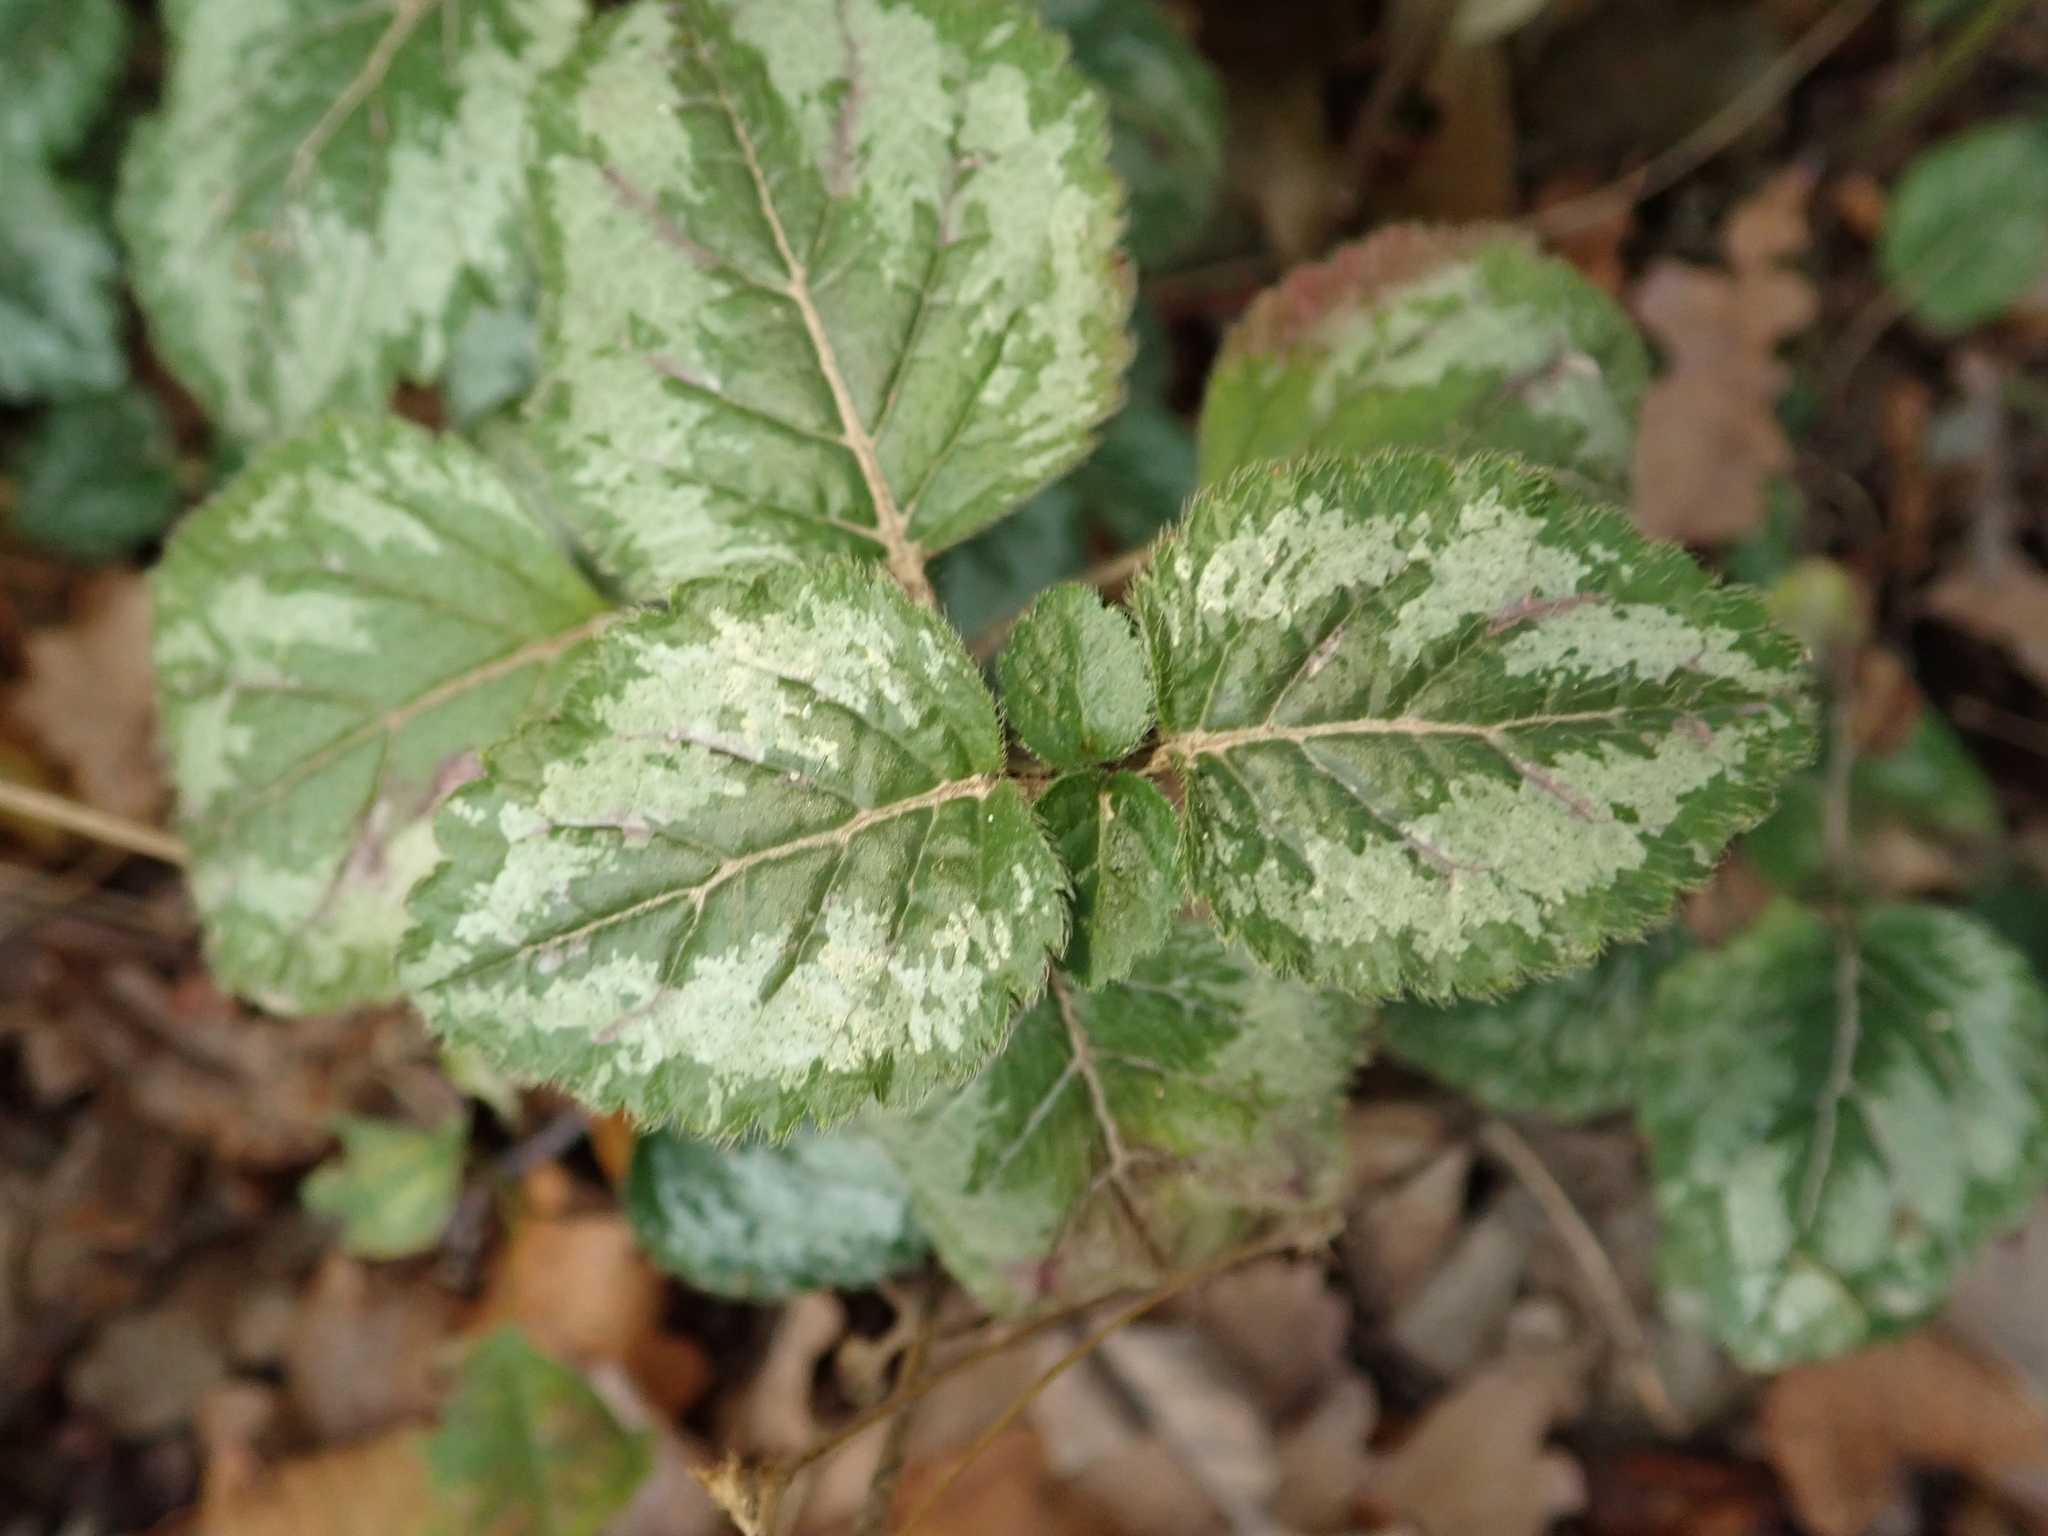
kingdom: Plantae
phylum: Tracheophyta
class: Magnoliopsida
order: Lamiales
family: Lamiaceae
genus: Lamium
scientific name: Lamium galeobdolon
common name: Yellow archangel
